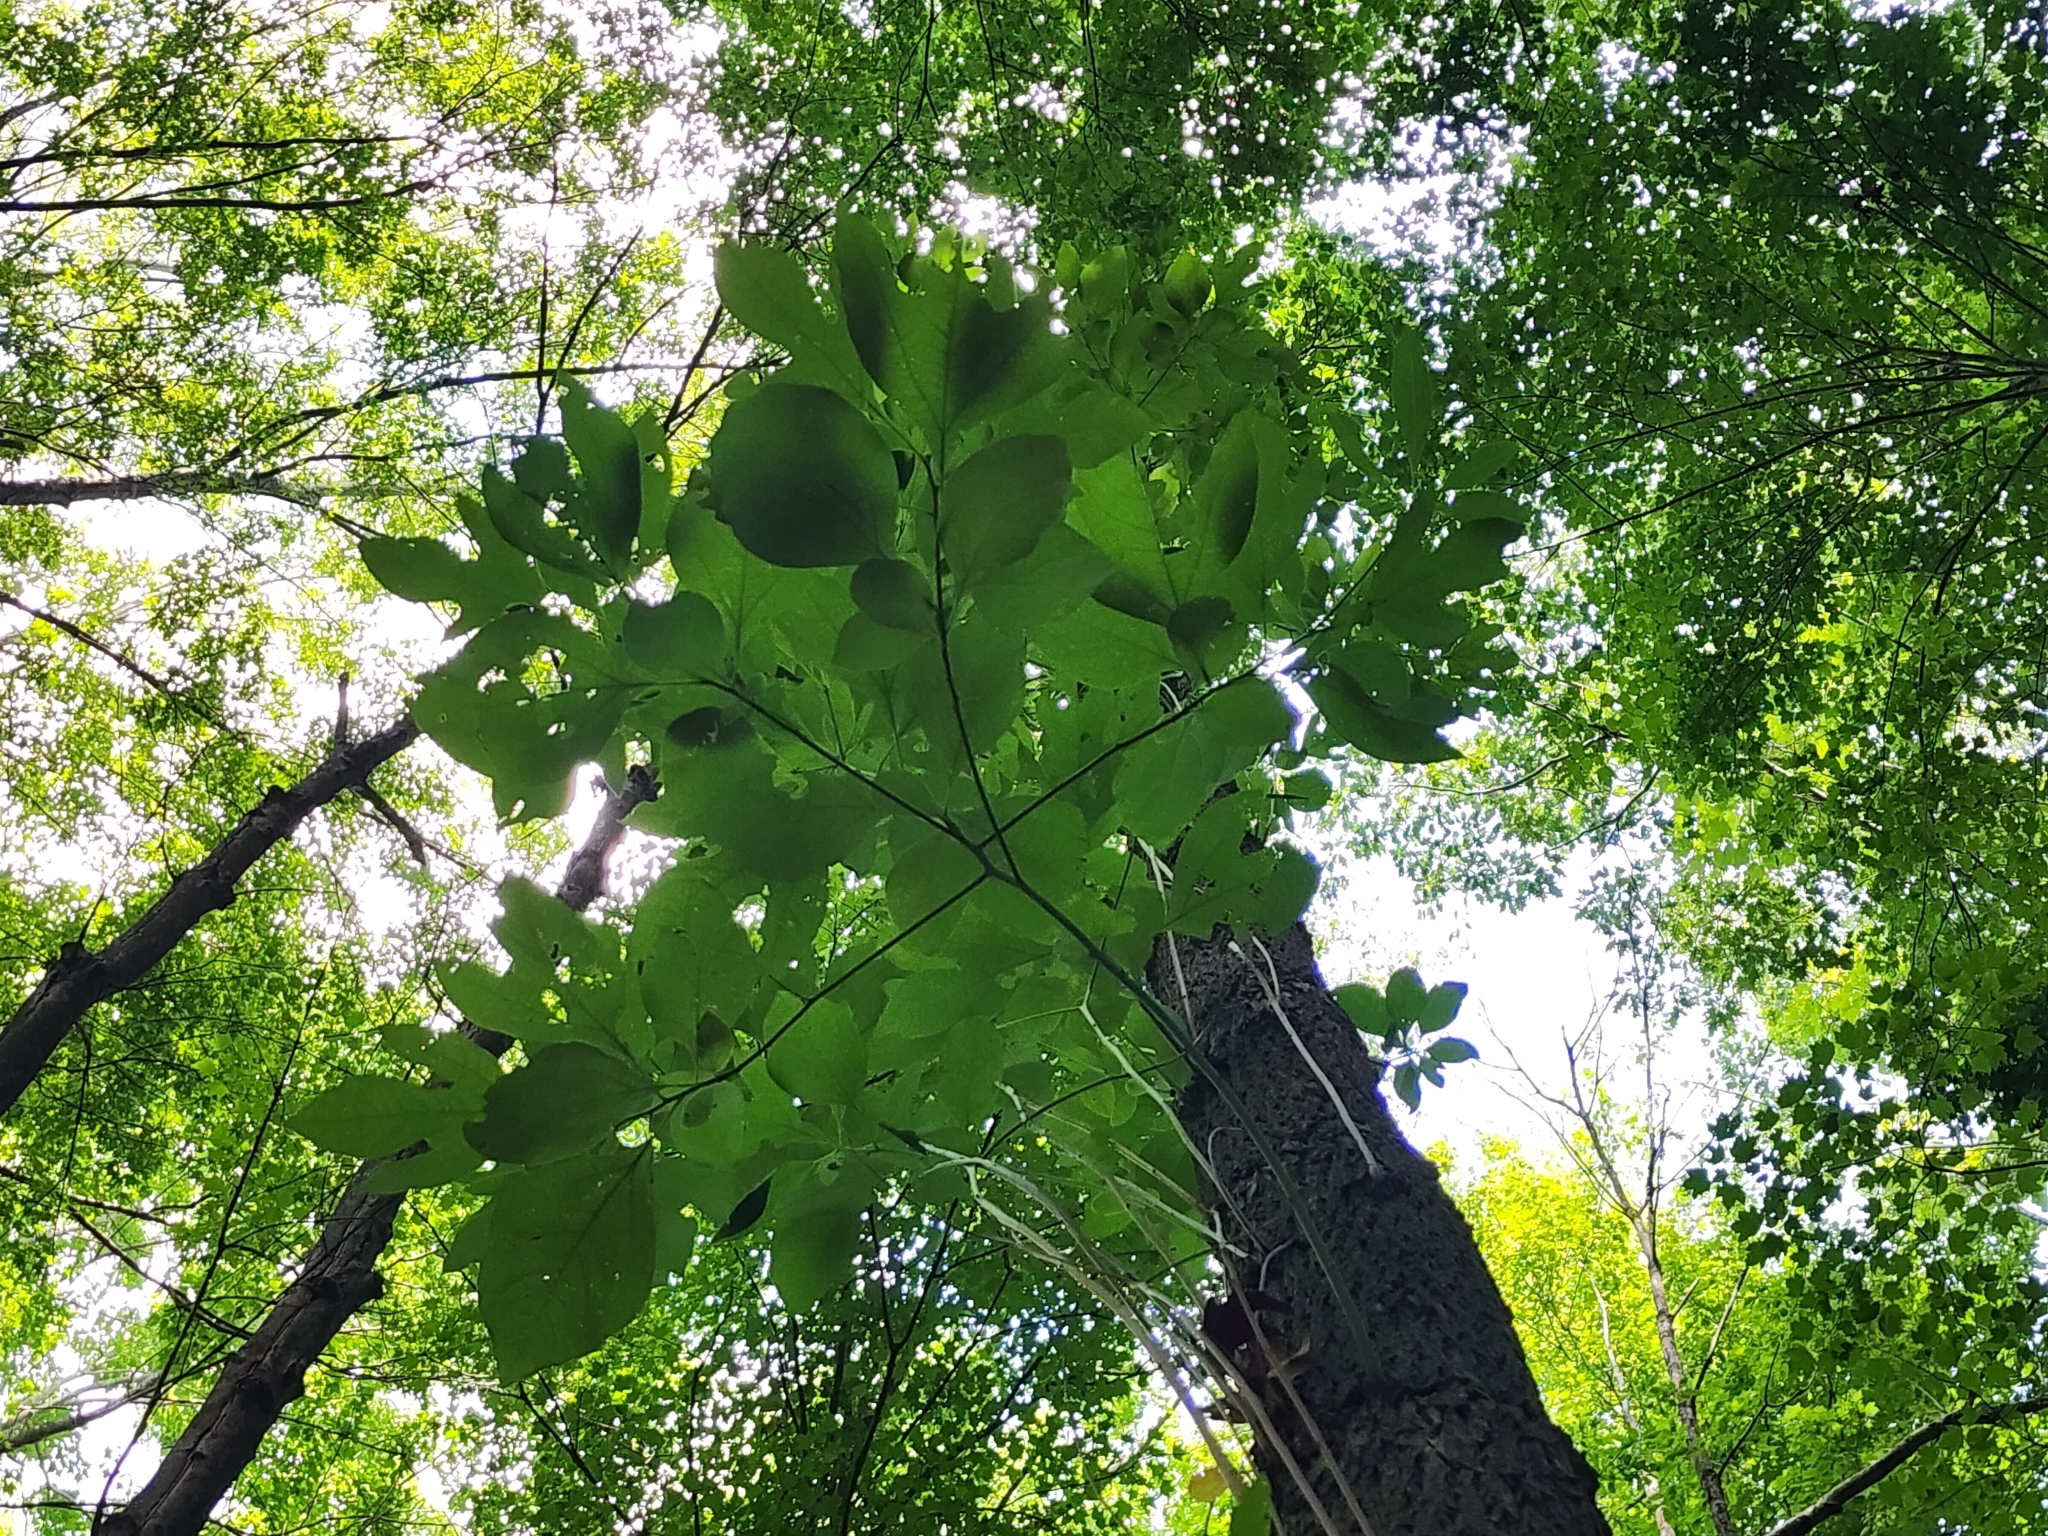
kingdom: Plantae
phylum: Tracheophyta
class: Magnoliopsida
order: Laurales
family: Lauraceae
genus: Sassafras
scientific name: Sassafras albidum
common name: Sassafras
